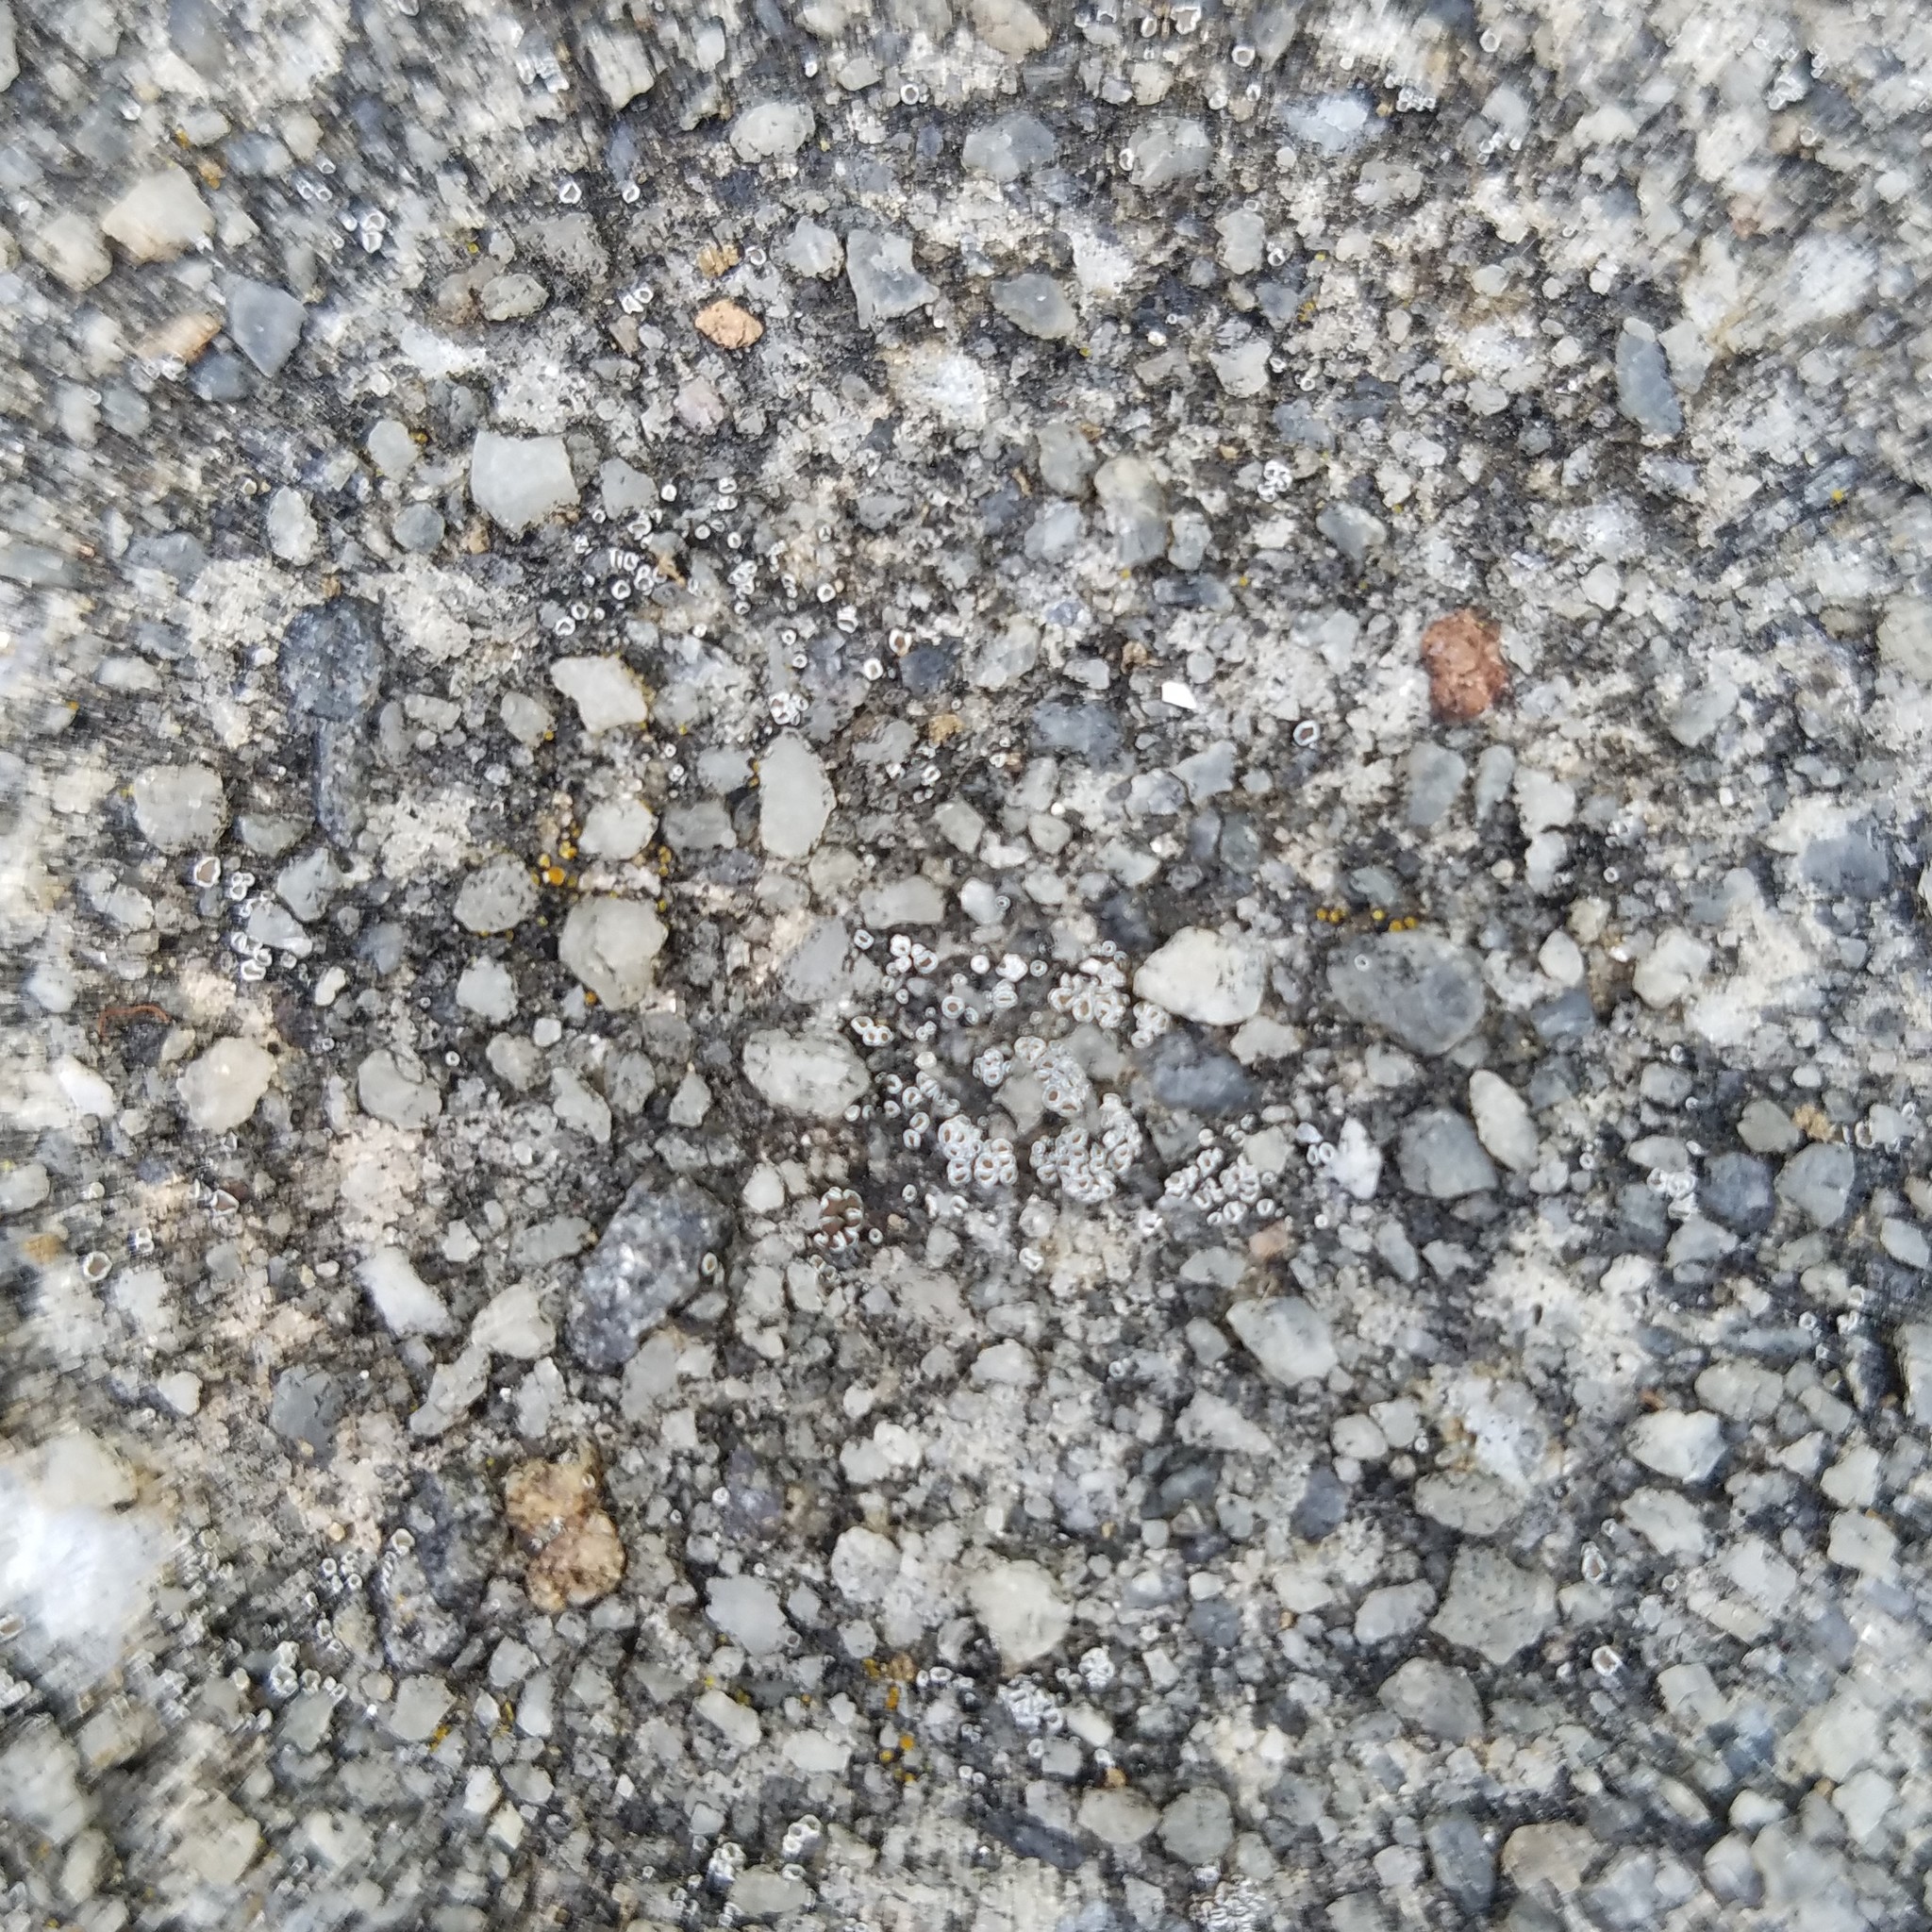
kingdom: Fungi
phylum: Ascomycota
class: Lecanoromycetes
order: Lecanorales
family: Lecanoraceae
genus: Polyozosia
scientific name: Polyozosia dispersa
